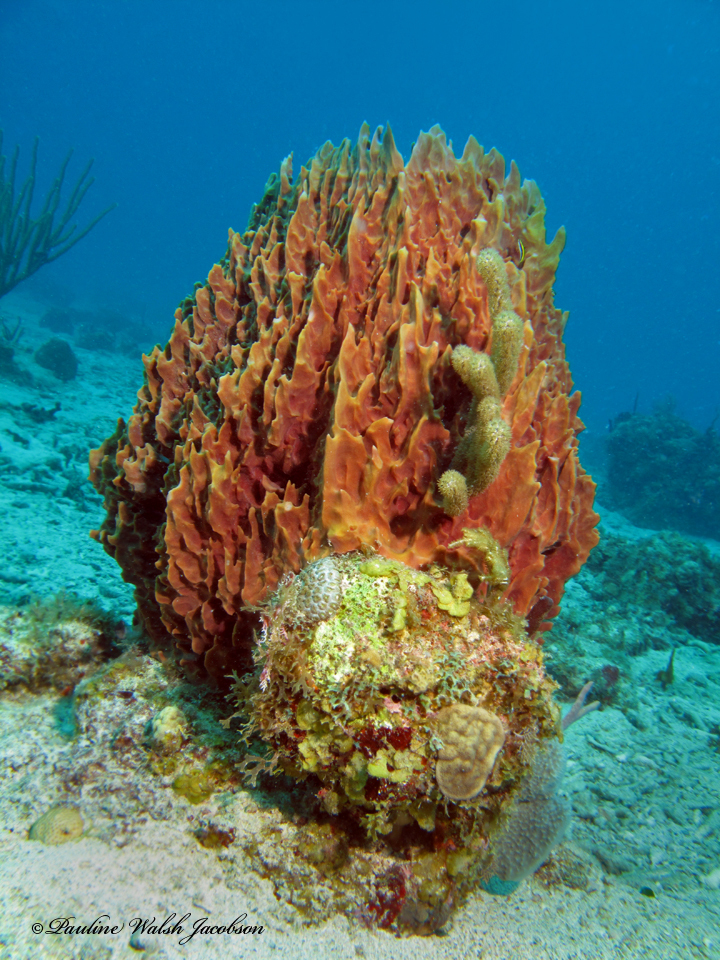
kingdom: Animalia
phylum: Porifera
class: Demospongiae
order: Haplosclerida
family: Petrosiidae
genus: Xestospongia
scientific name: Xestospongia muta
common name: Giant barrel sponge
